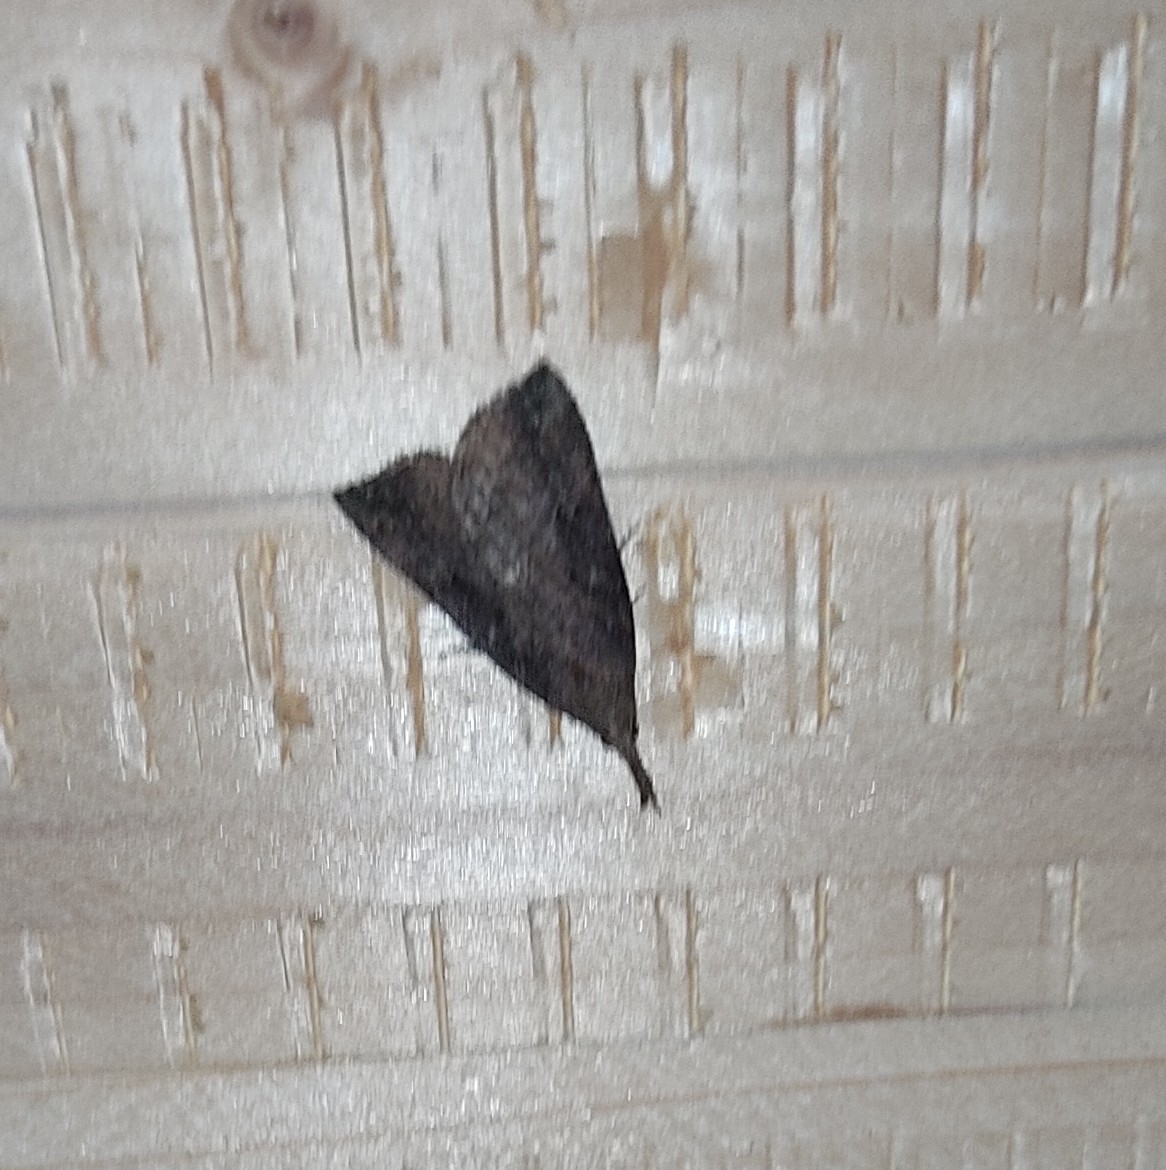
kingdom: Animalia
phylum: Arthropoda
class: Insecta
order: Lepidoptera
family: Erebidae
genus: Hypena
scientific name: Hypena rostralis
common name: Buttoned snout
